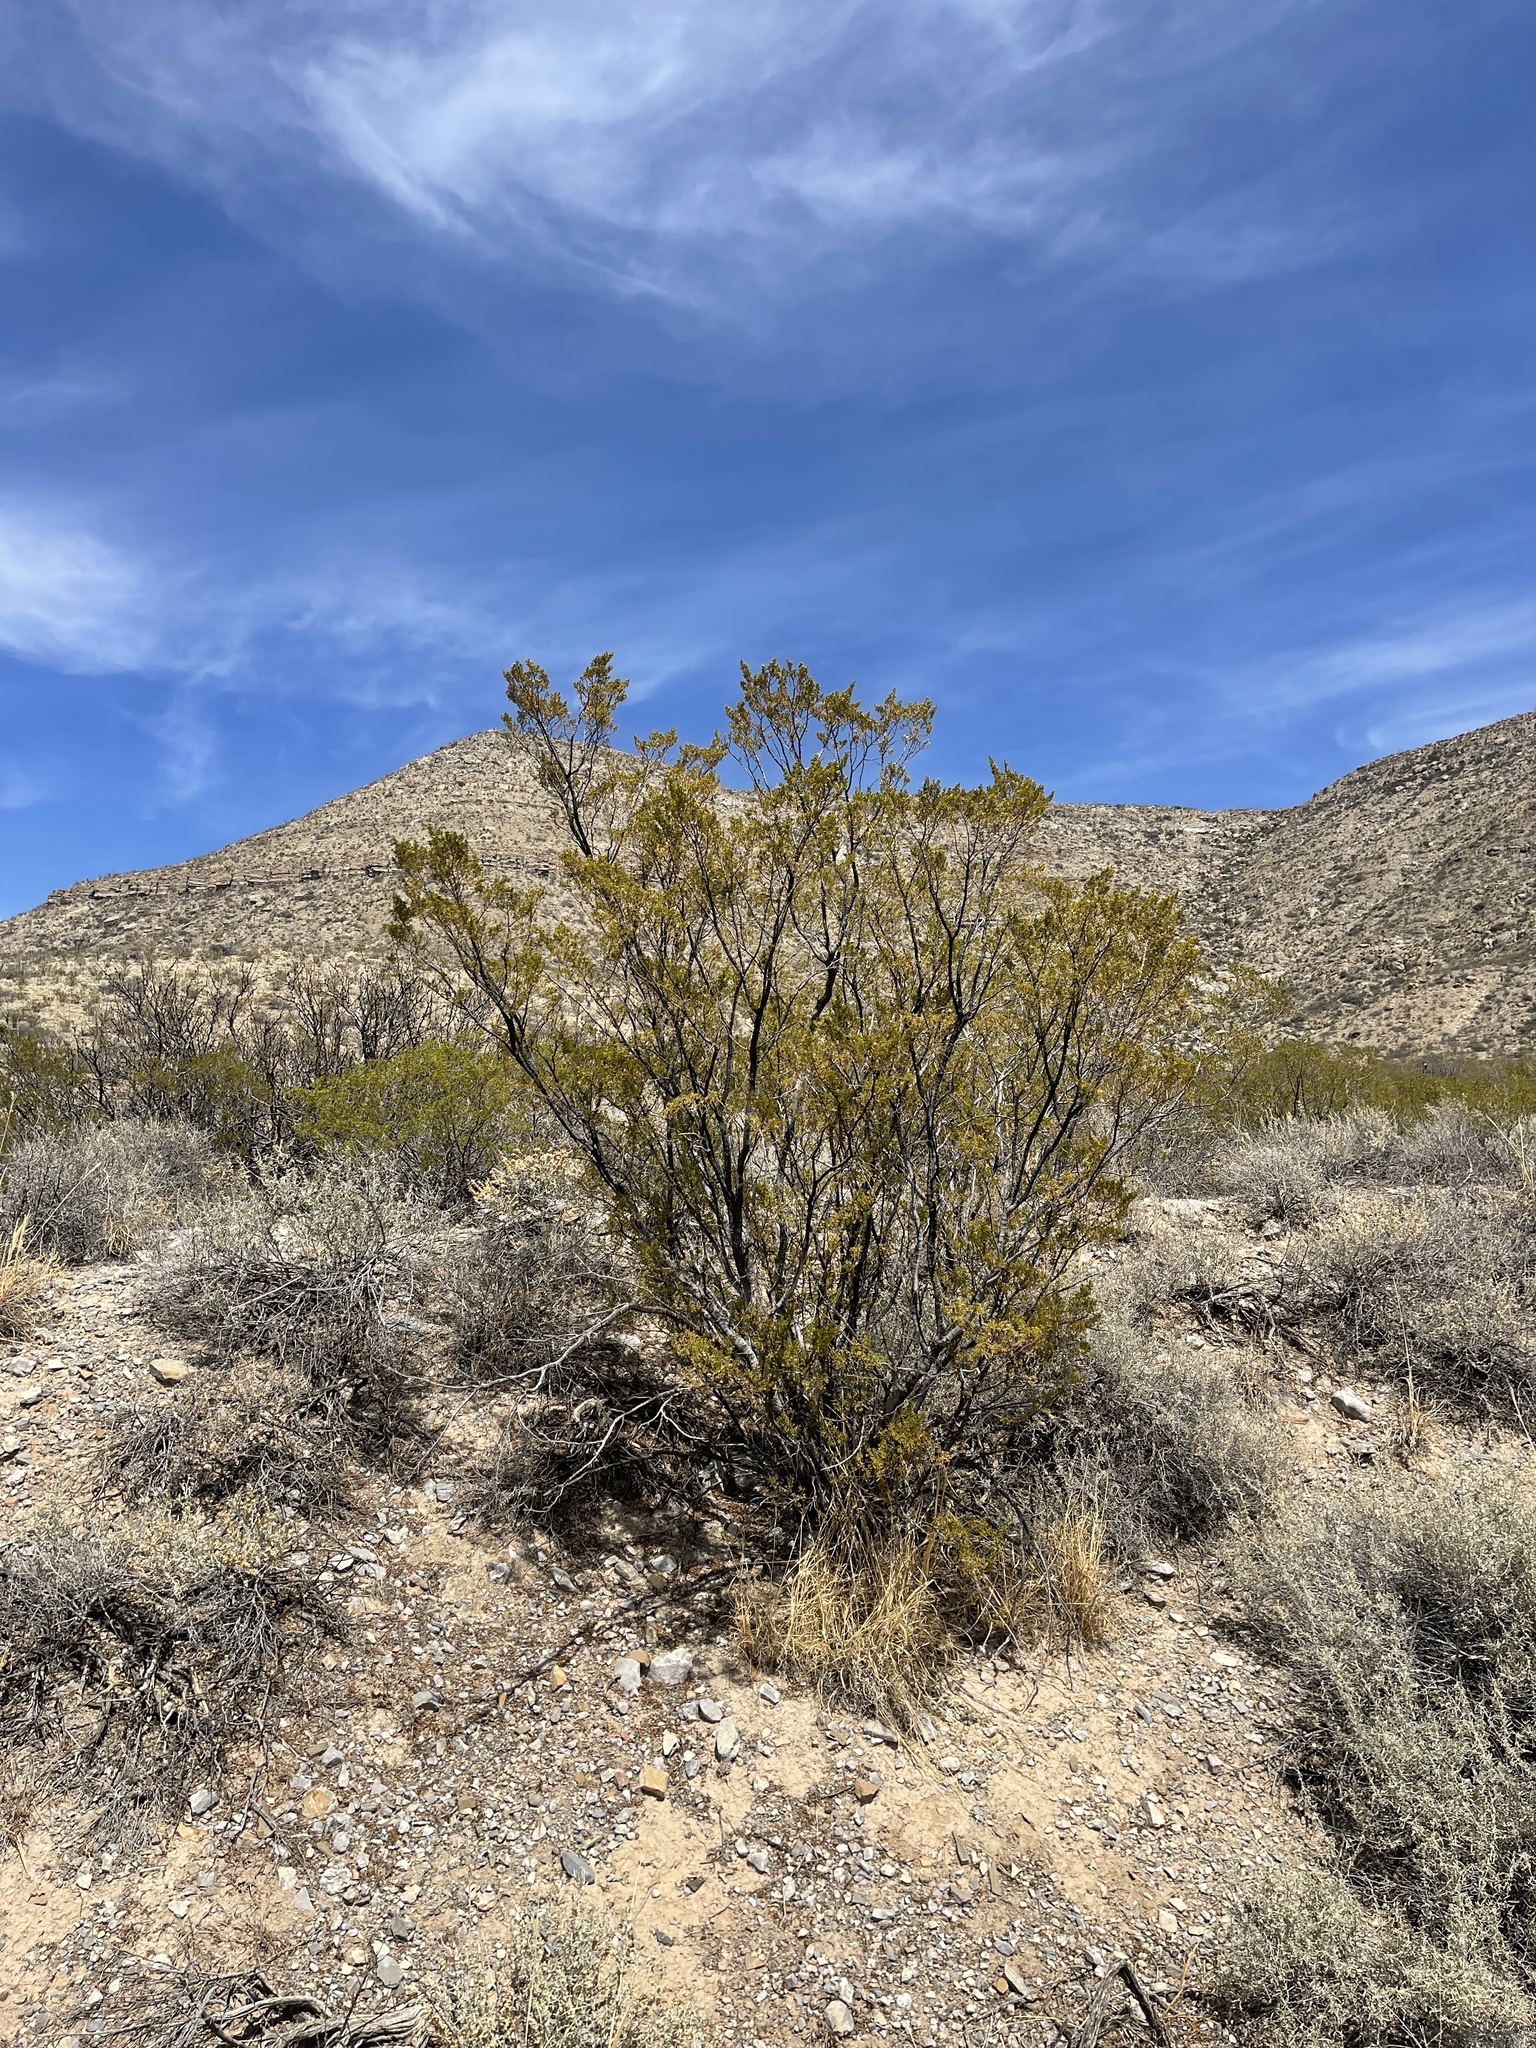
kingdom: Plantae
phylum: Tracheophyta
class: Magnoliopsida
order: Zygophyllales
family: Zygophyllaceae
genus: Larrea
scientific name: Larrea tridentata
